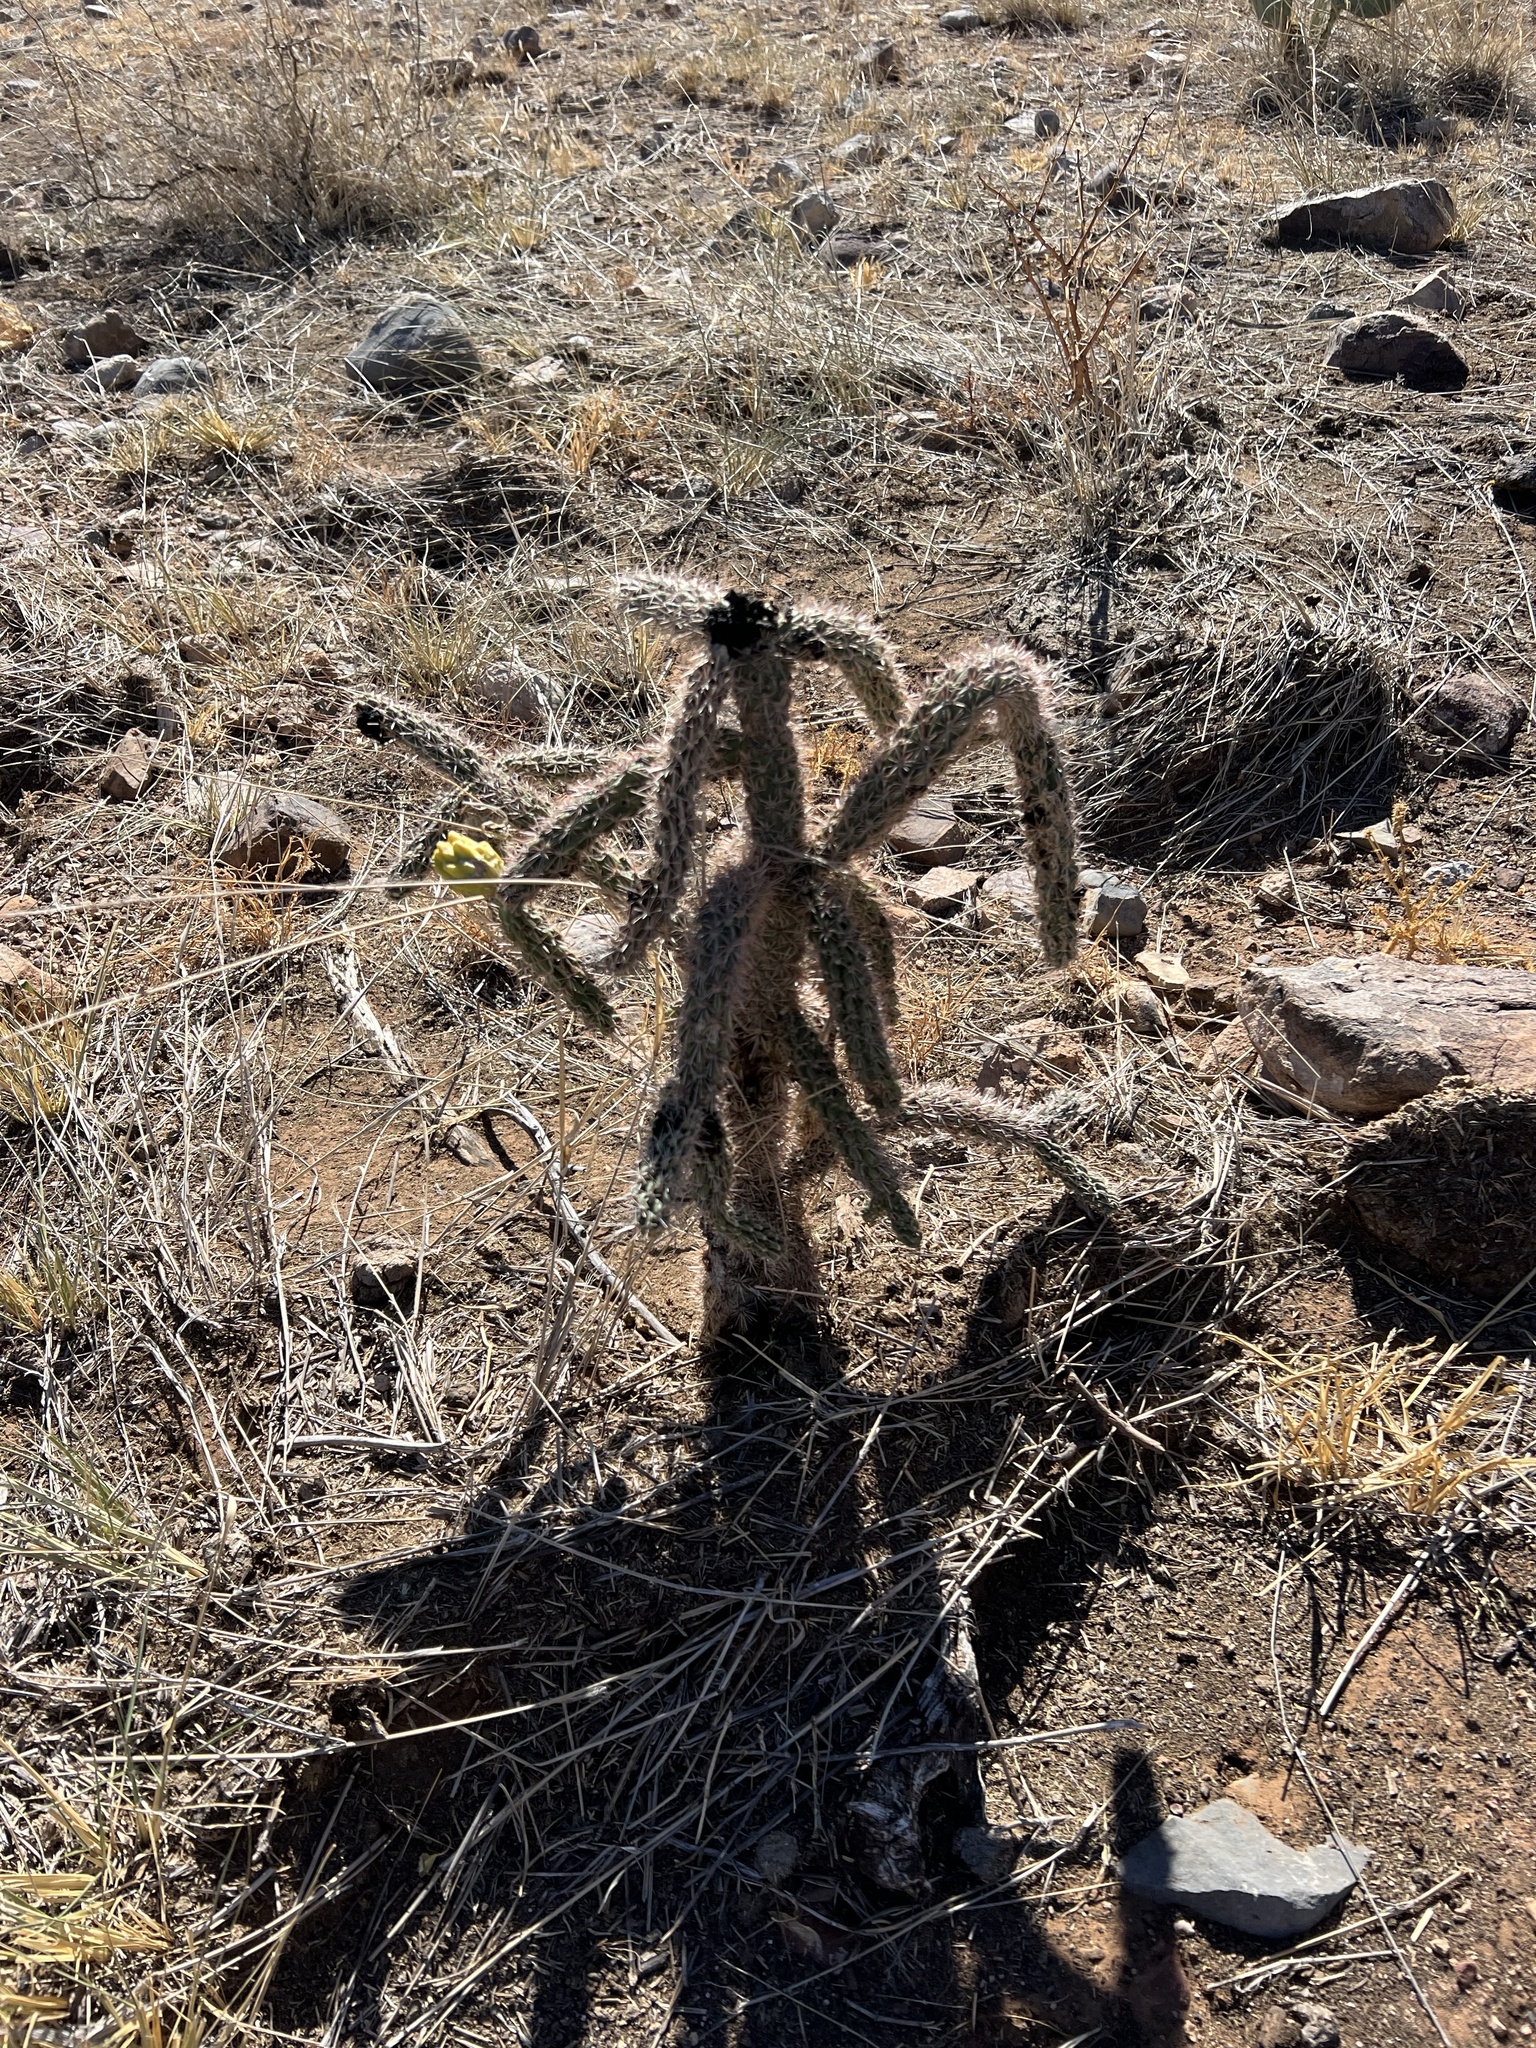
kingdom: Plantae
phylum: Tracheophyta
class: Magnoliopsida
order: Caryophyllales
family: Cactaceae
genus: Cylindropuntia
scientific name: Cylindropuntia imbricata
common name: Candelabrum cactus
